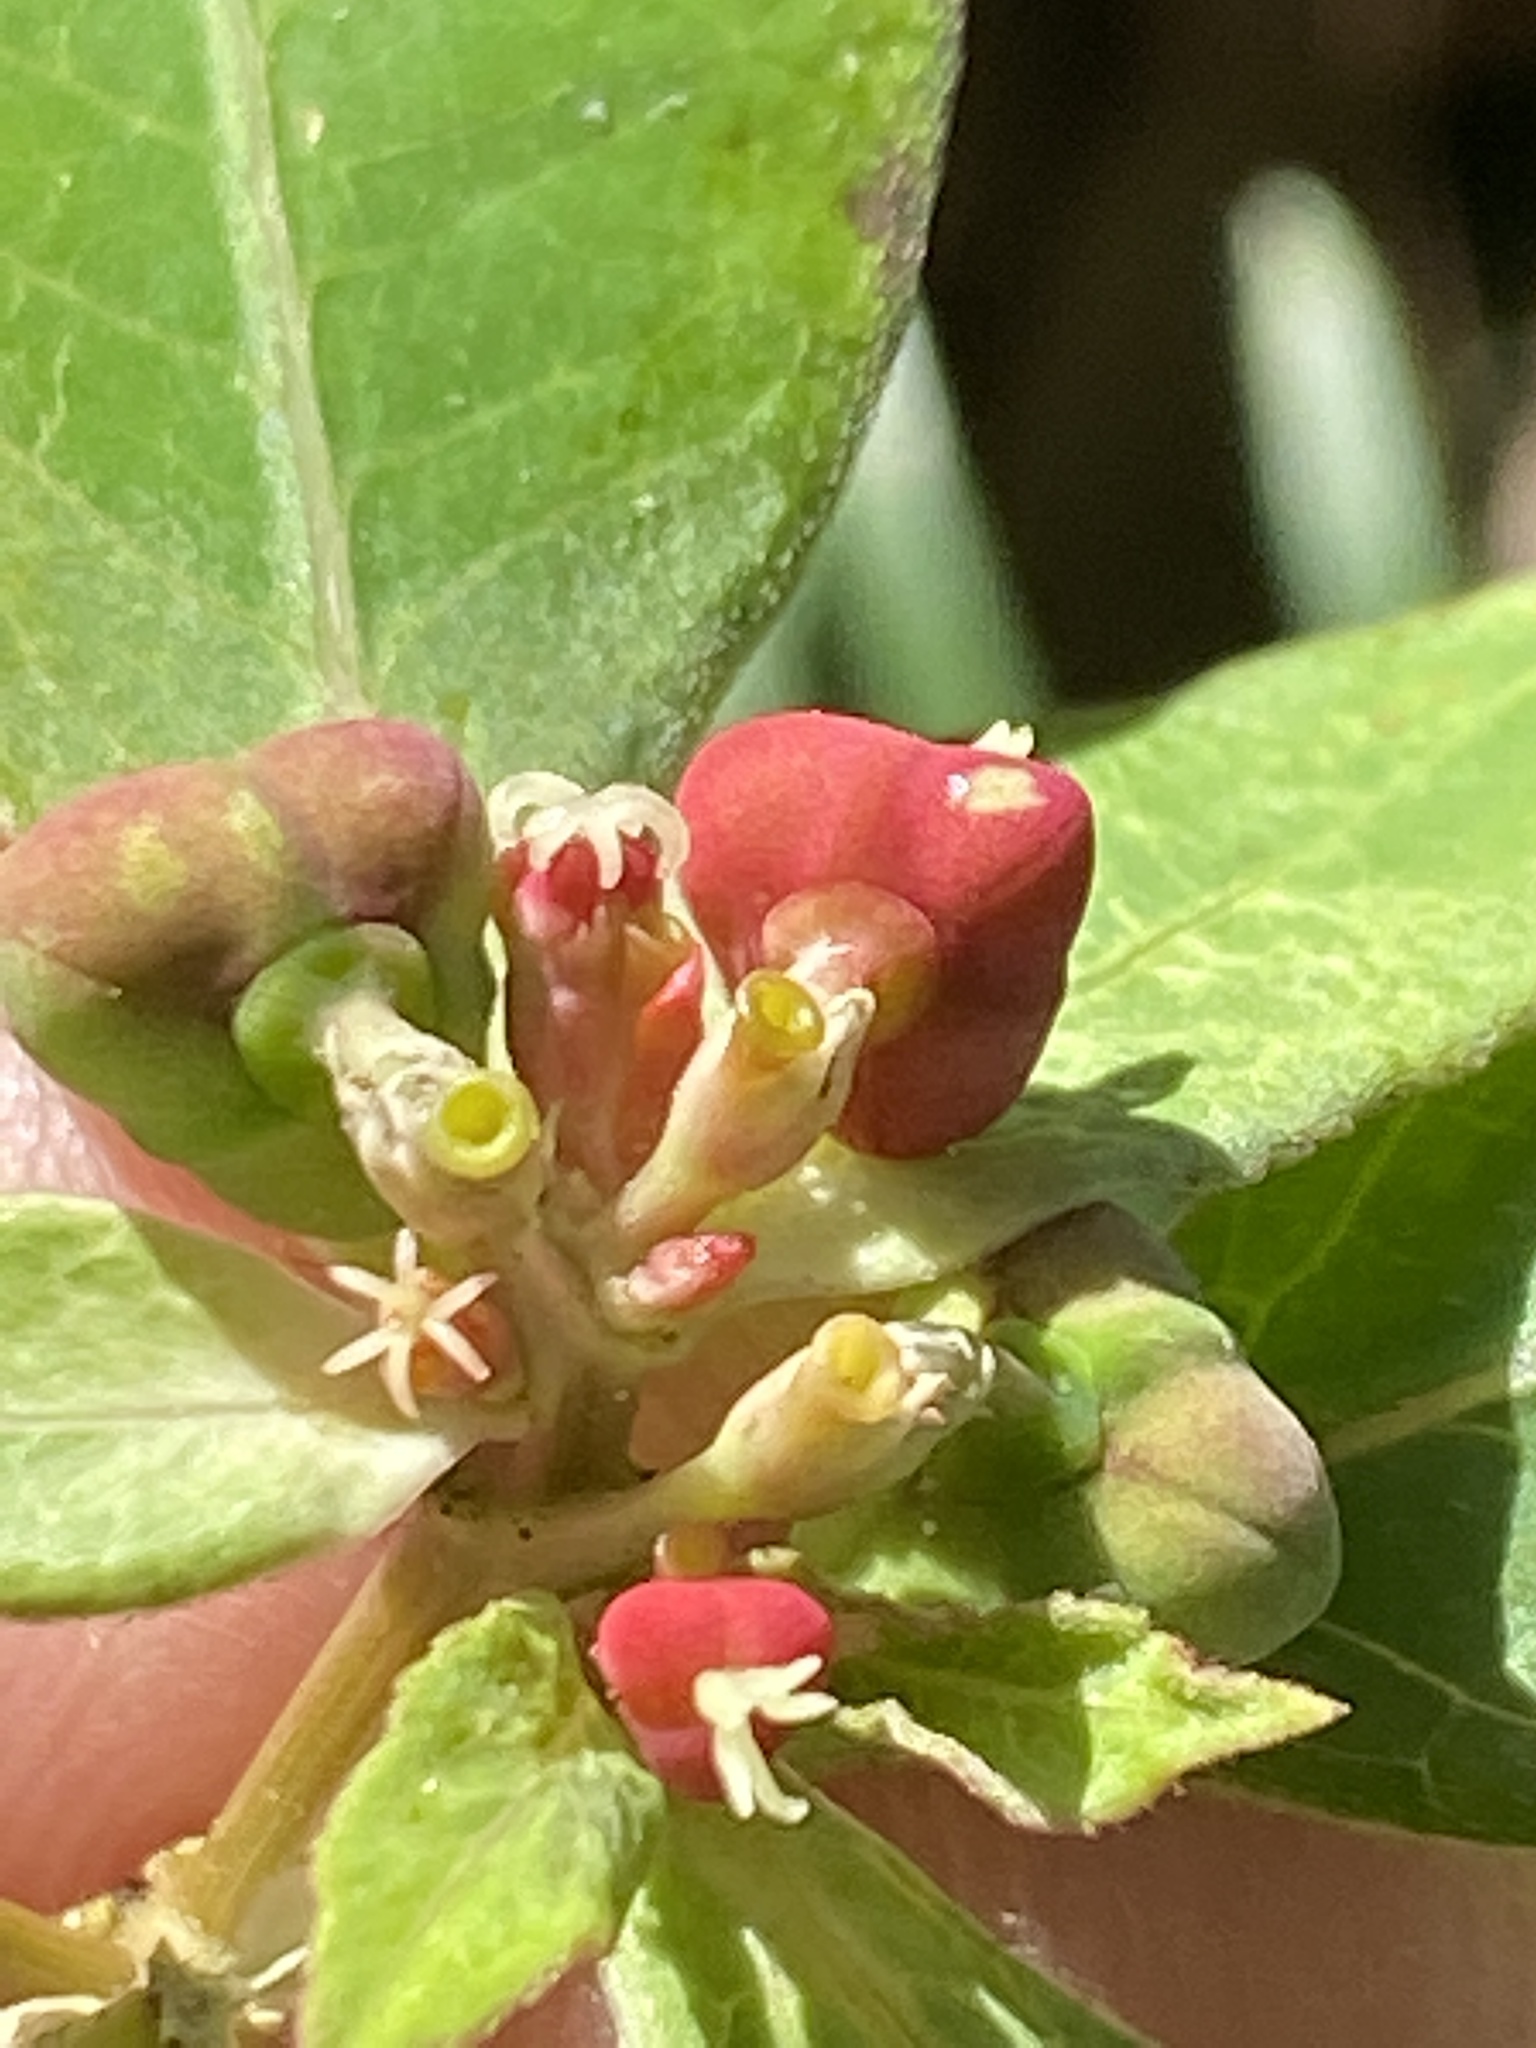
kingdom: Plantae
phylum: Tracheophyta
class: Magnoliopsida
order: Malpighiales
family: Euphorbiaceae
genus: Euphorbia
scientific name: Euphorbia heterophylla
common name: Mexican fireplant
